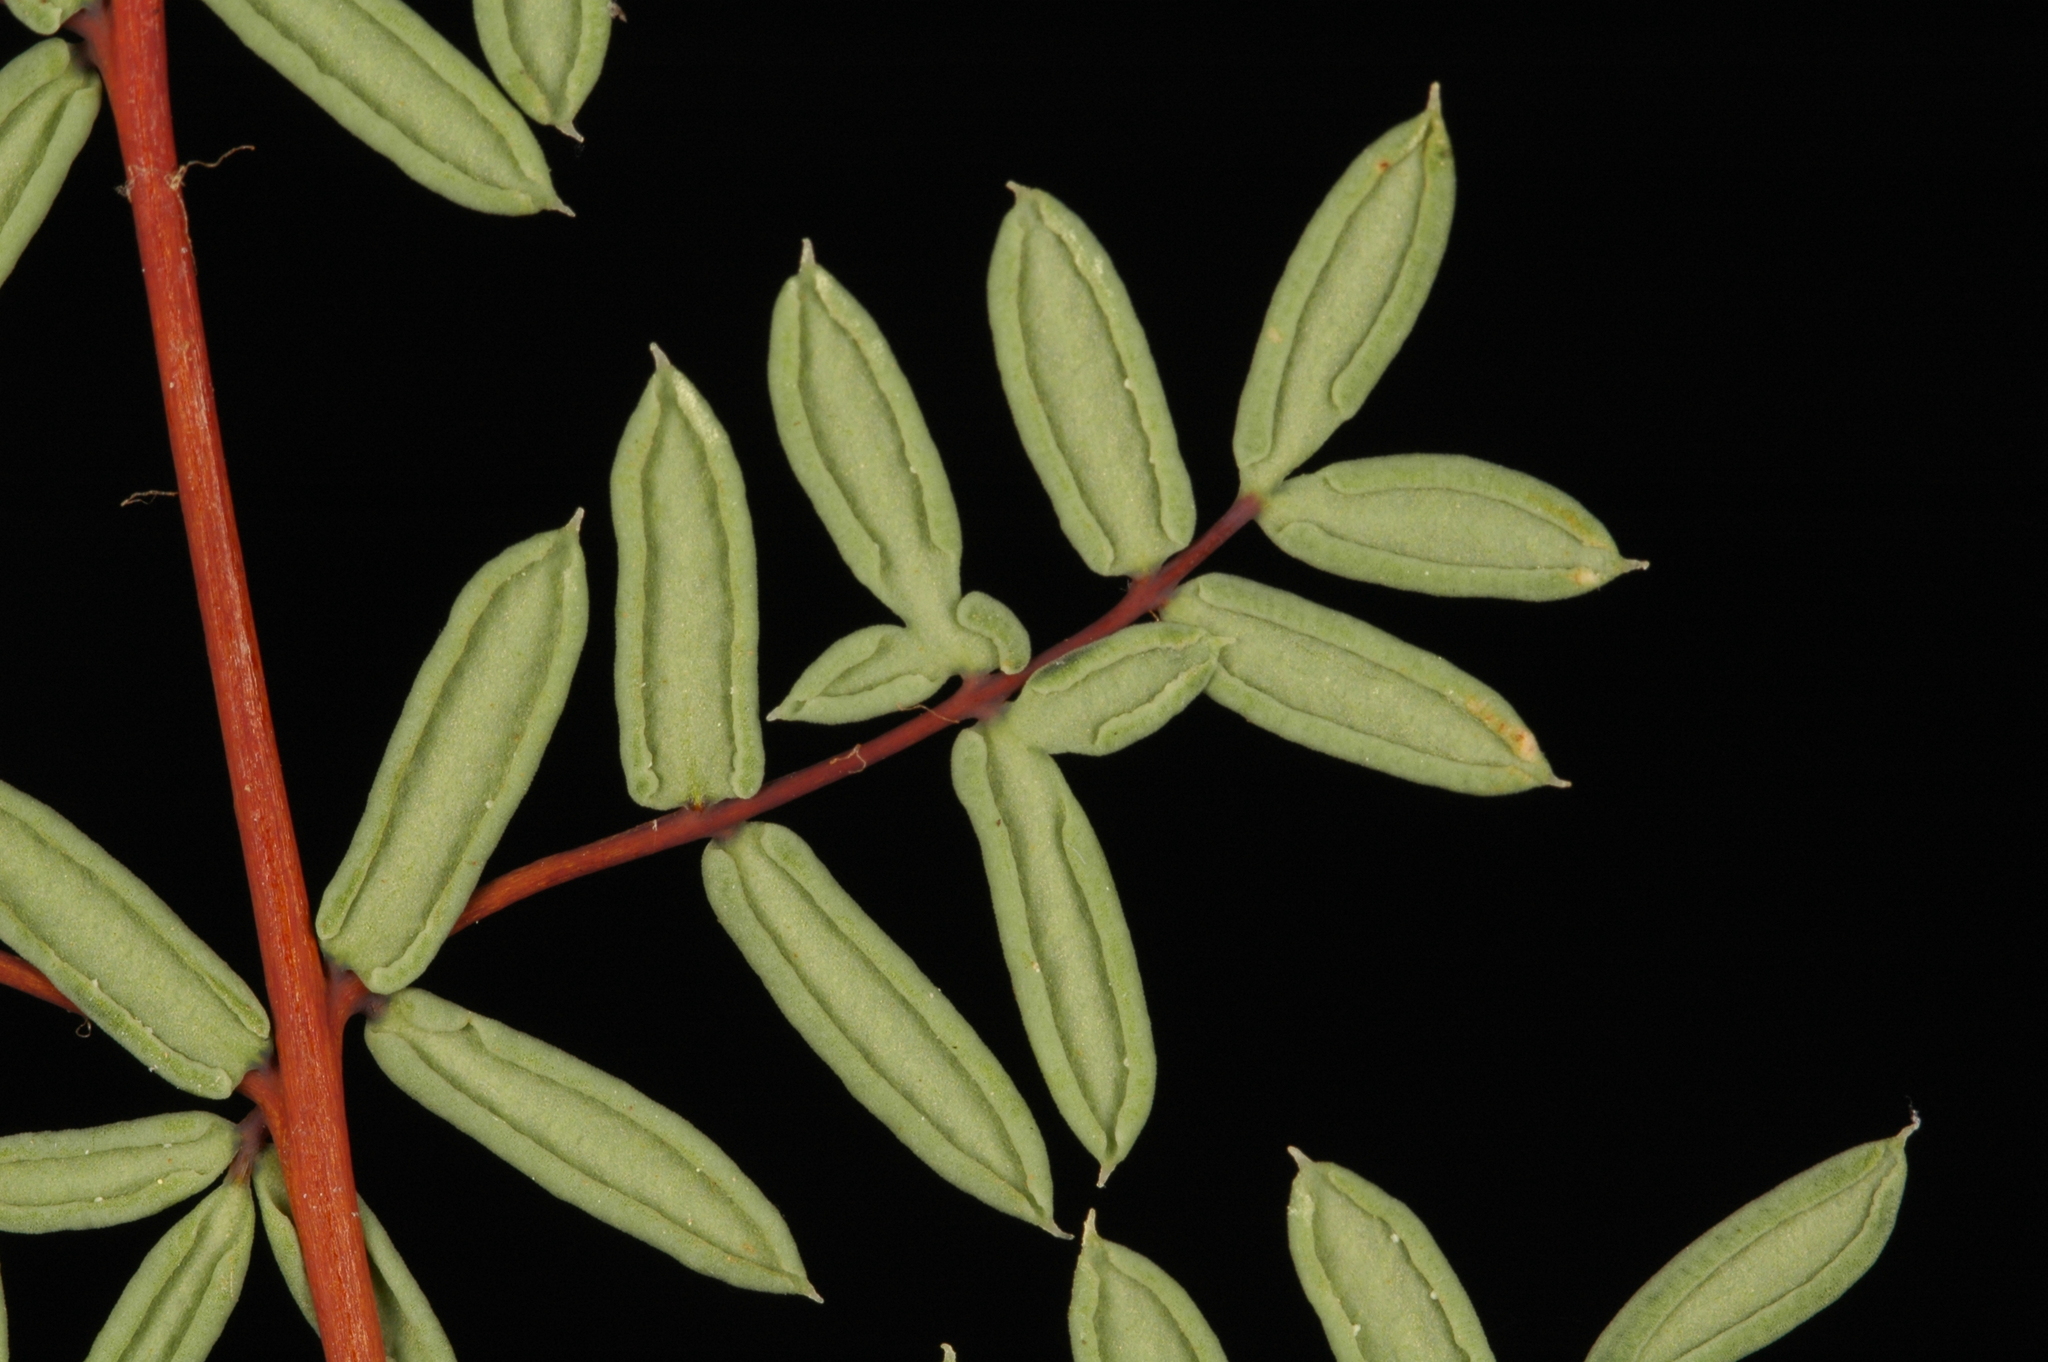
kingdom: Plantae
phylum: Tracheophyta
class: Polypodiopsida
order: Polypodiales
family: Pteridaceae
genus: Pellaea
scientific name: Pellaea mucronata
